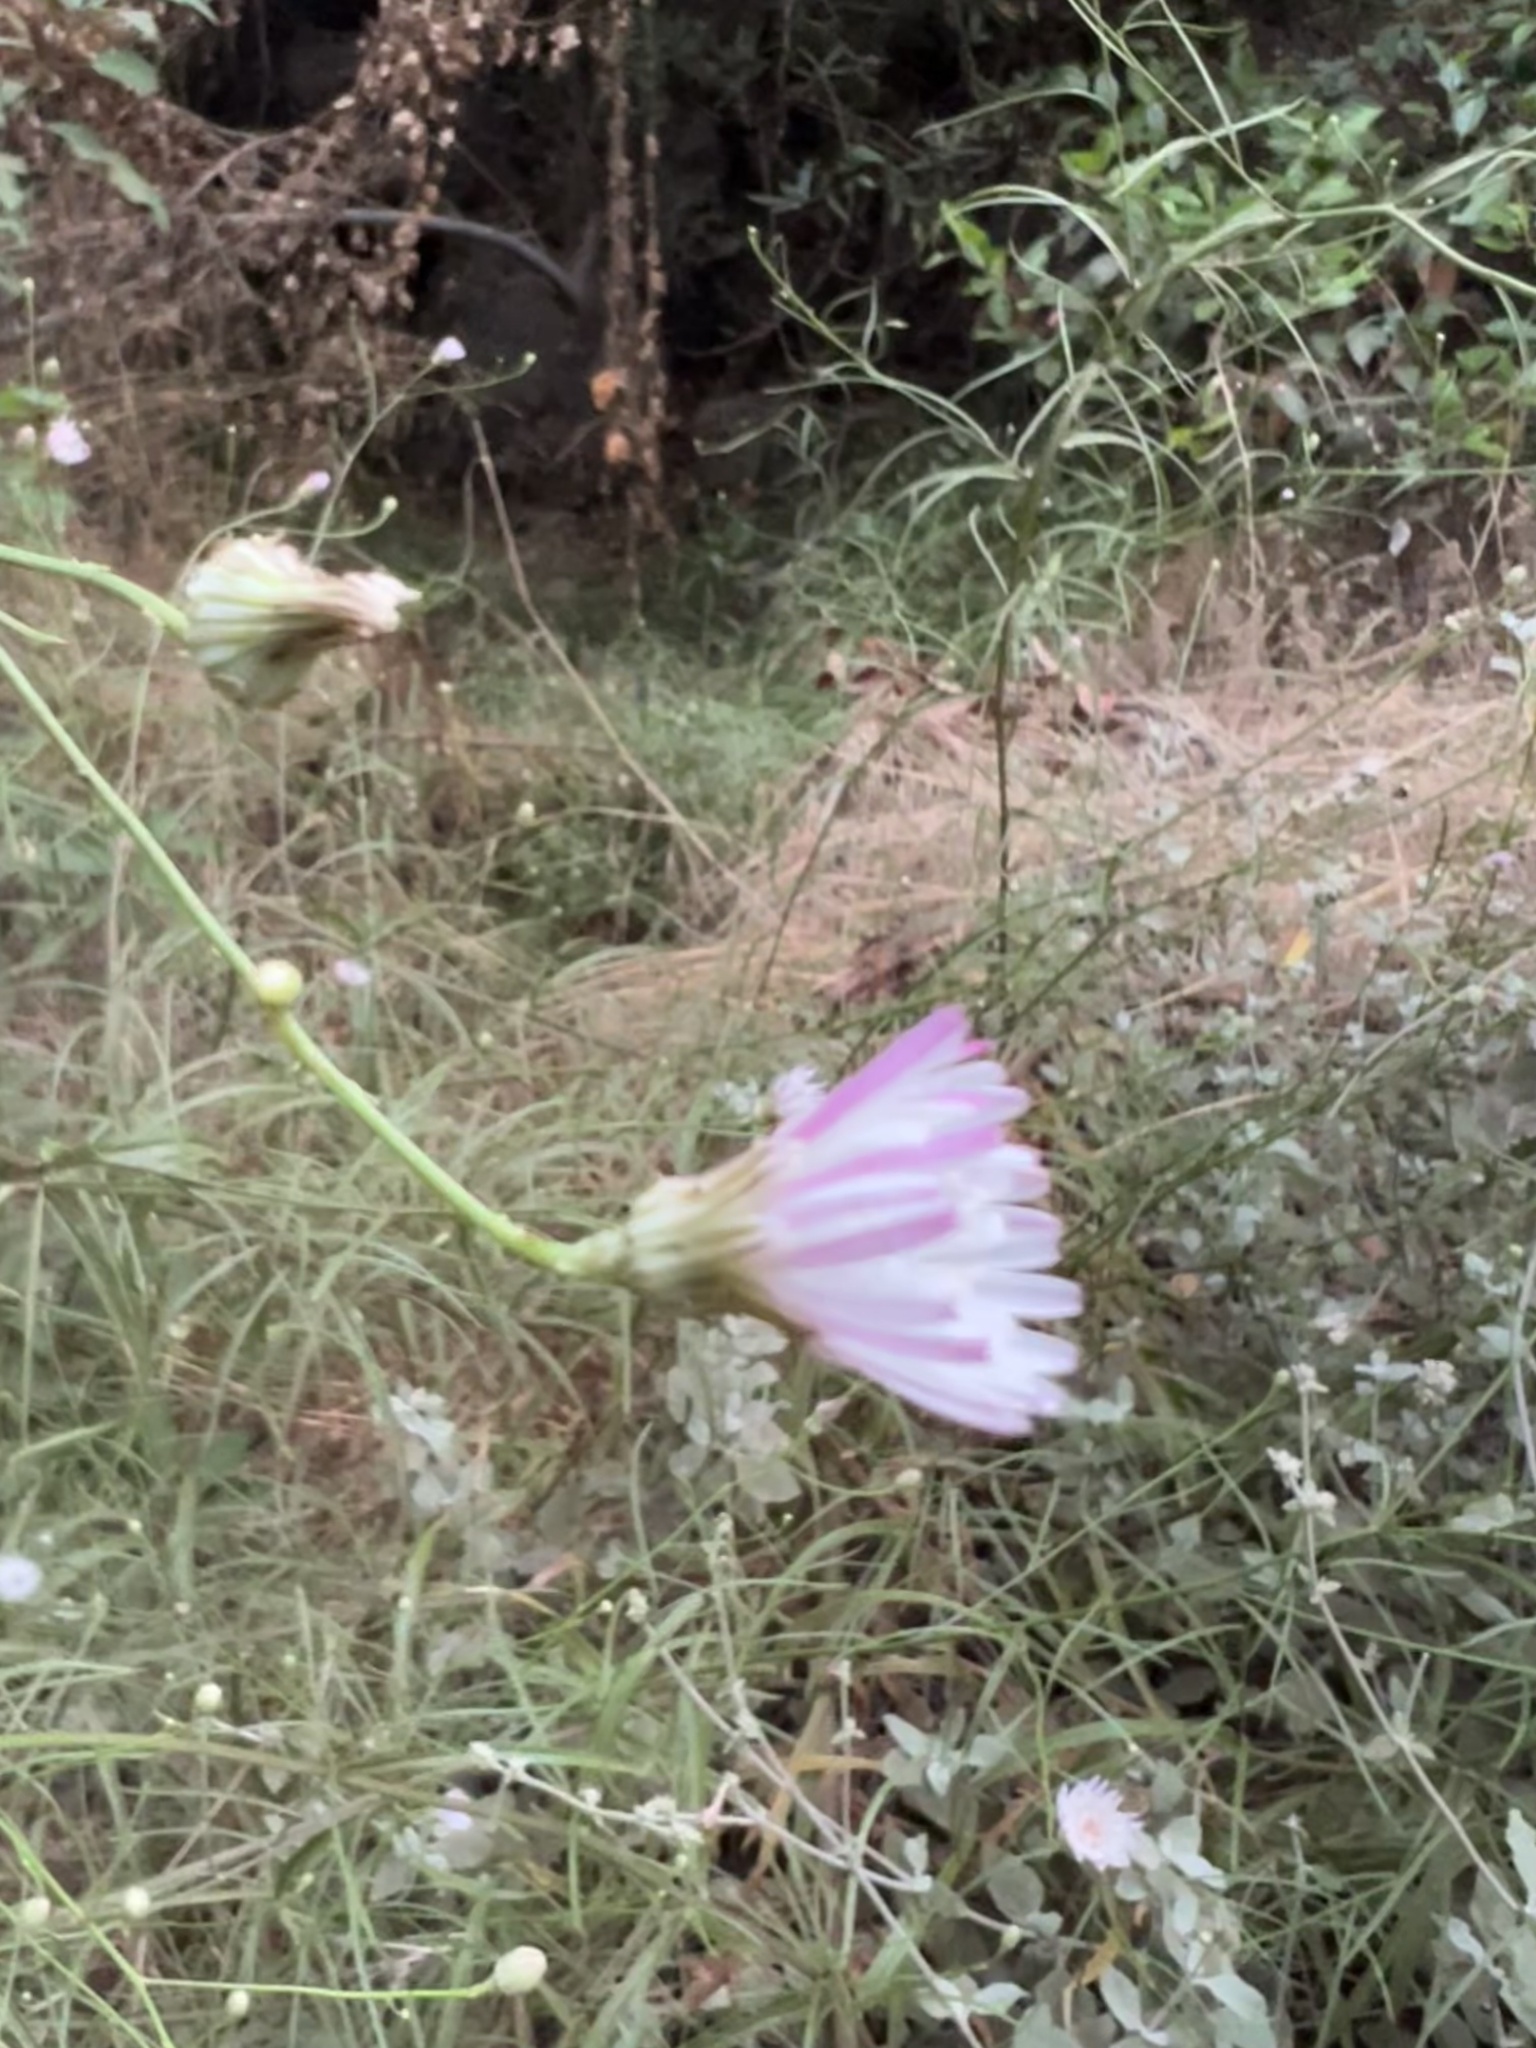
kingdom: Plantae
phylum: Tracheophyta
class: Magnoliopsida
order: Asterales
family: Asteraceae
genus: Malacothrix
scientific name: Malacothrix saxatilis
